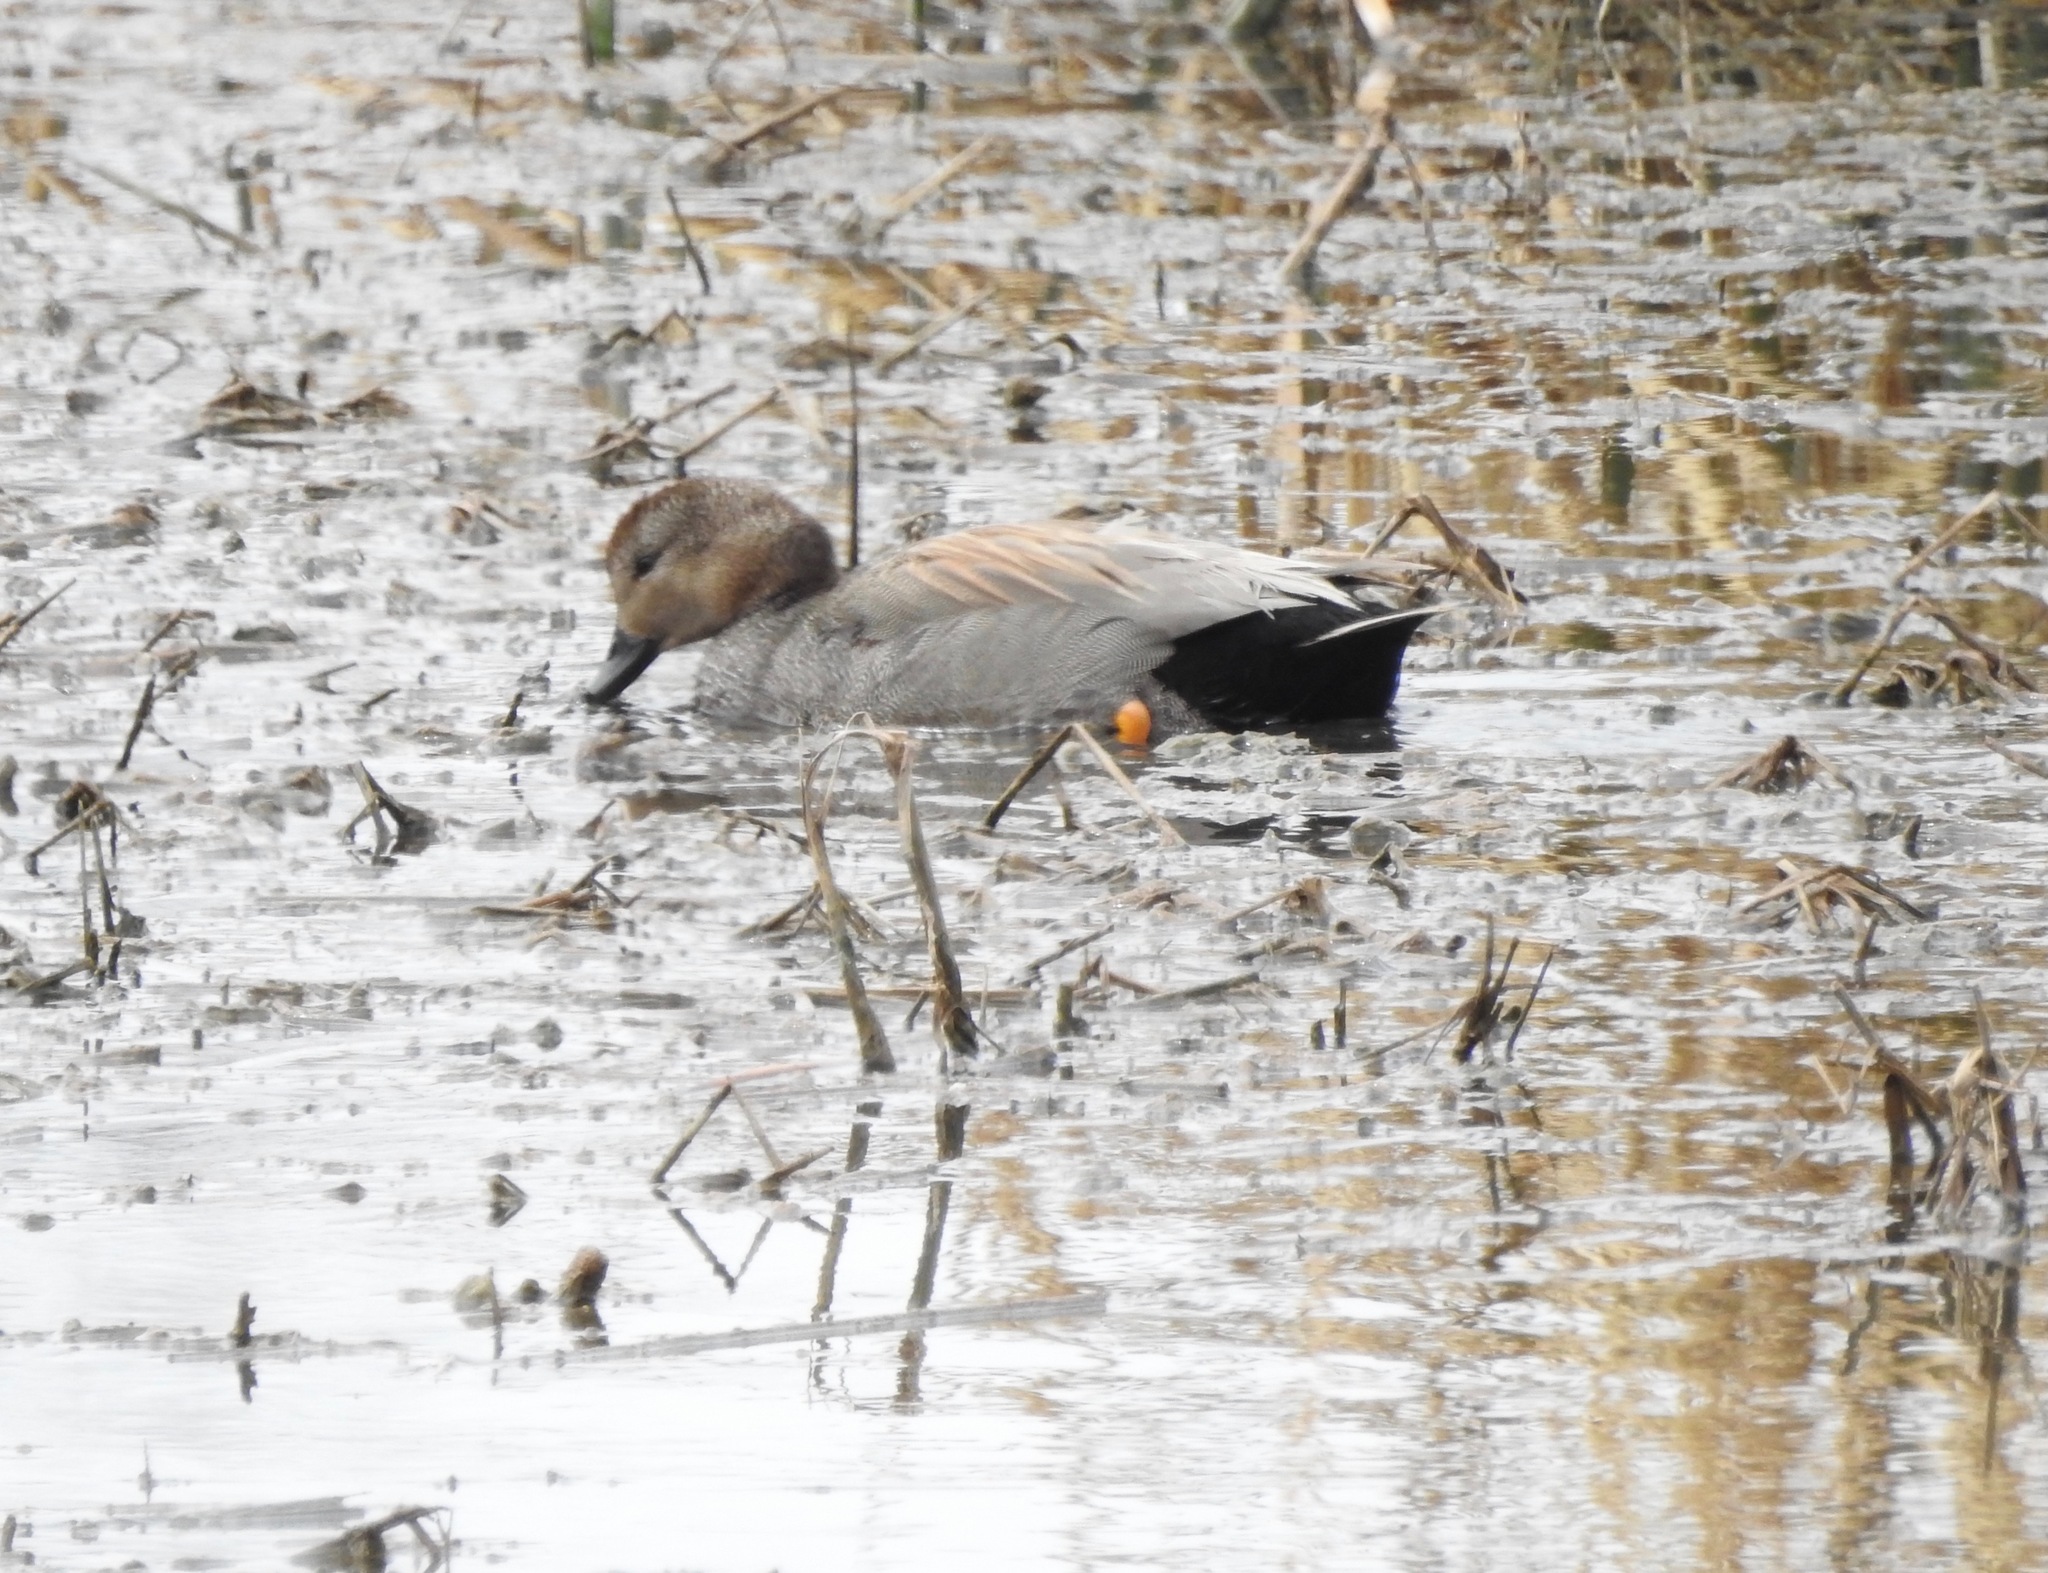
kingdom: Animalia
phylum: Chordata
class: Aves
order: Anseriformes
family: Anatidae
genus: Mareca
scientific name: Mareca strepera
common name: Gadwall
